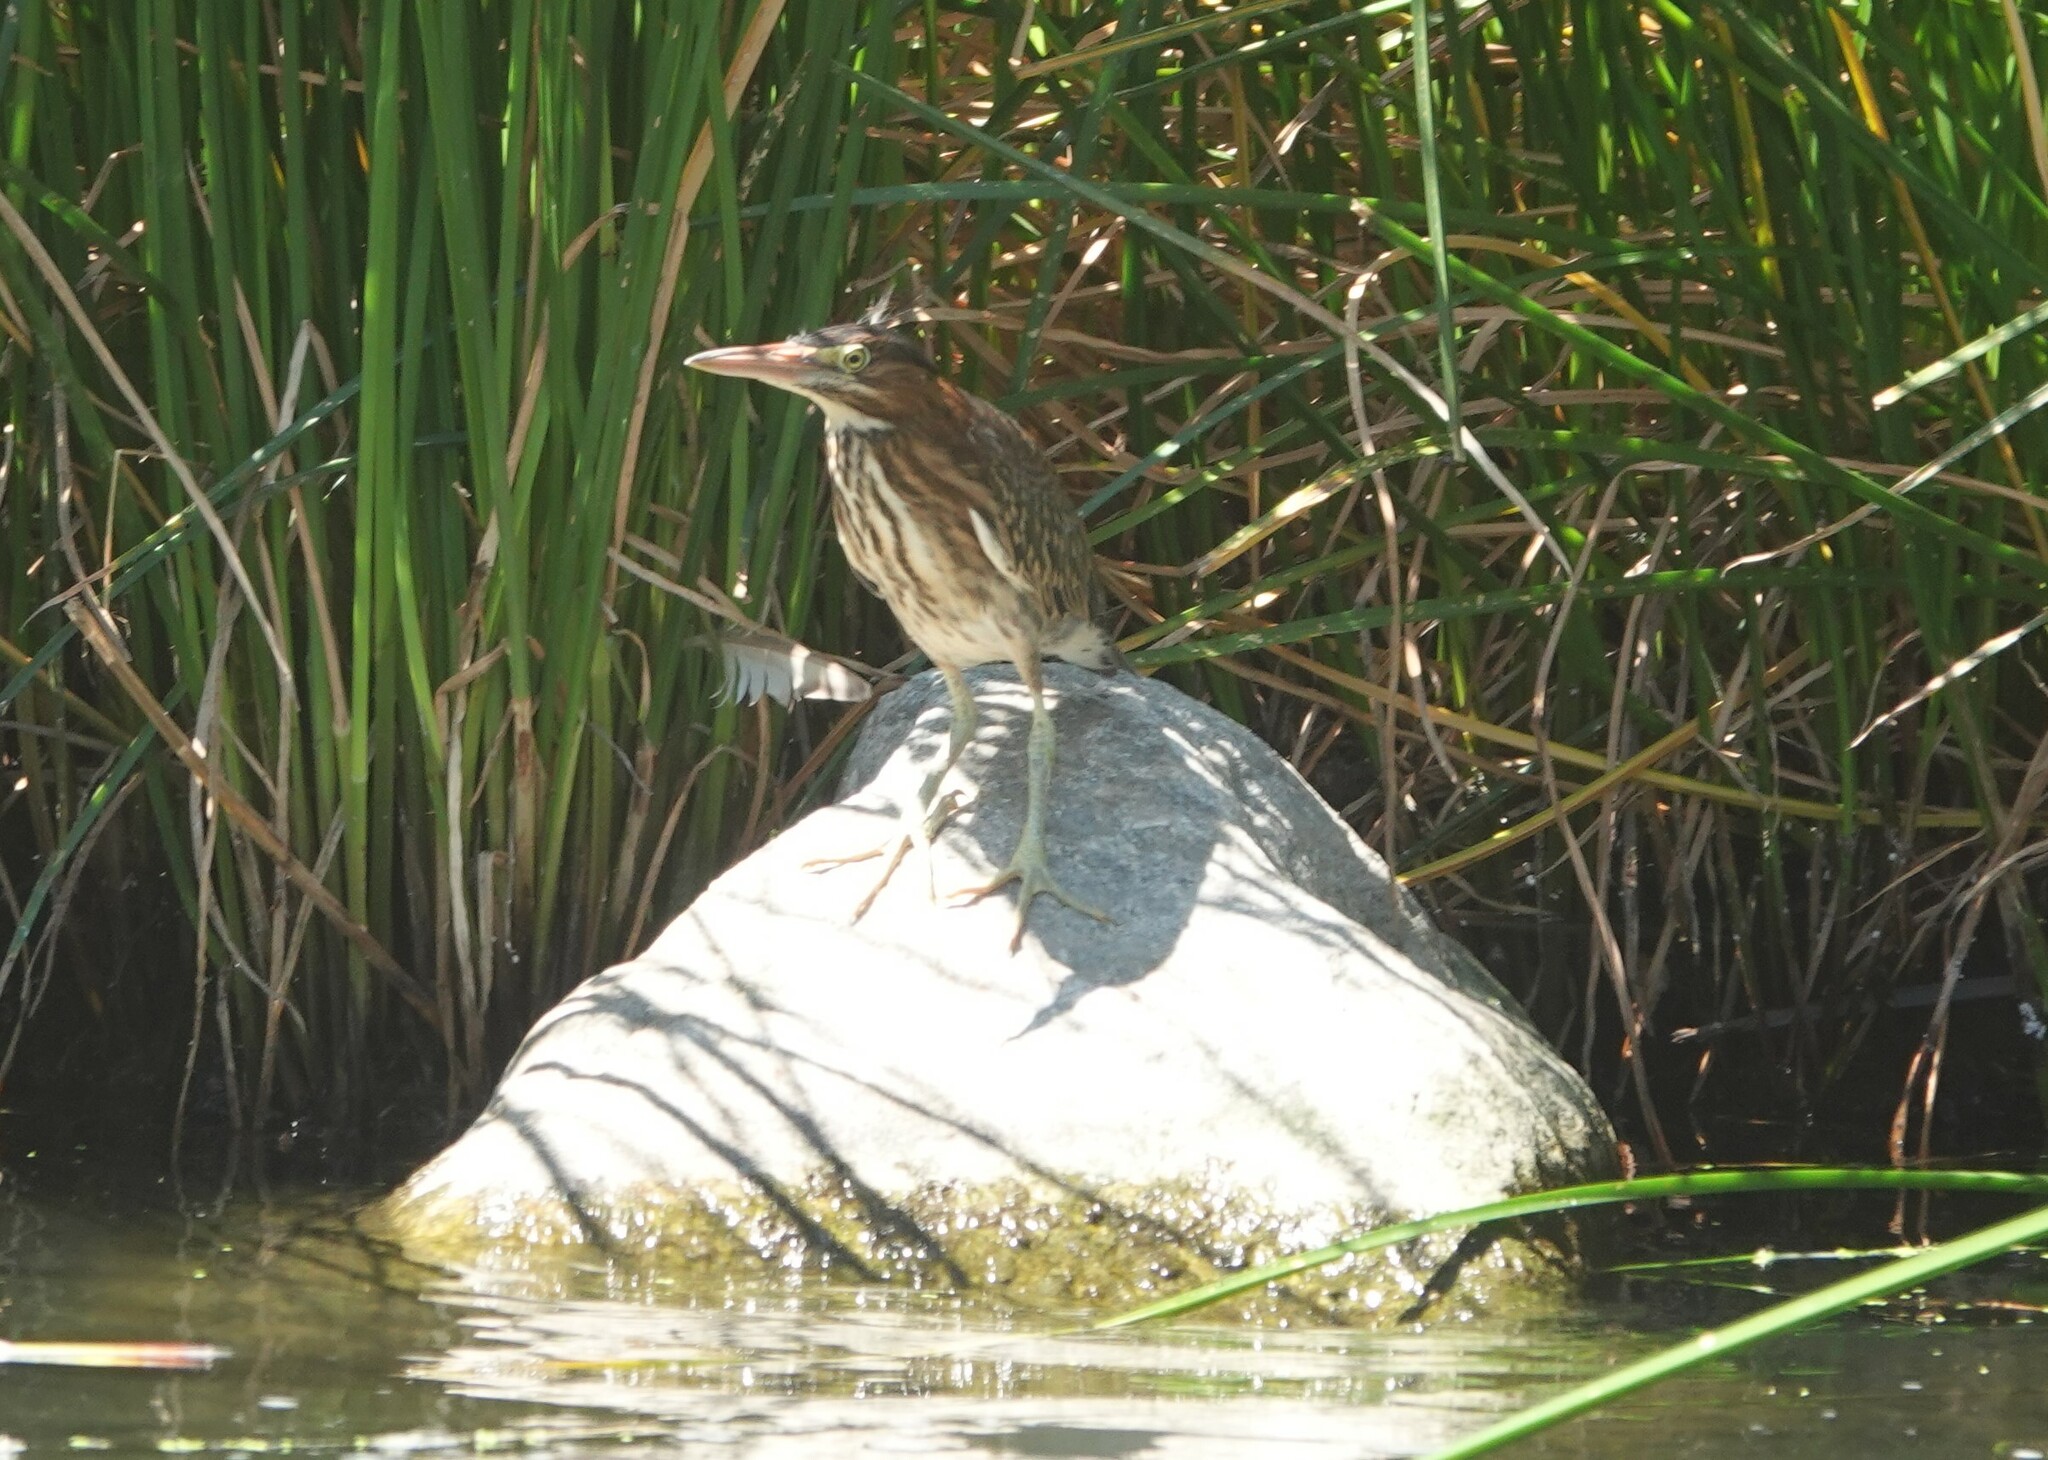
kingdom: Animalia
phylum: Chordata
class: Aves
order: Pelecaniformes
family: Ardeidae
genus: Butorides
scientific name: Butorides virescens
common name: Green heron
